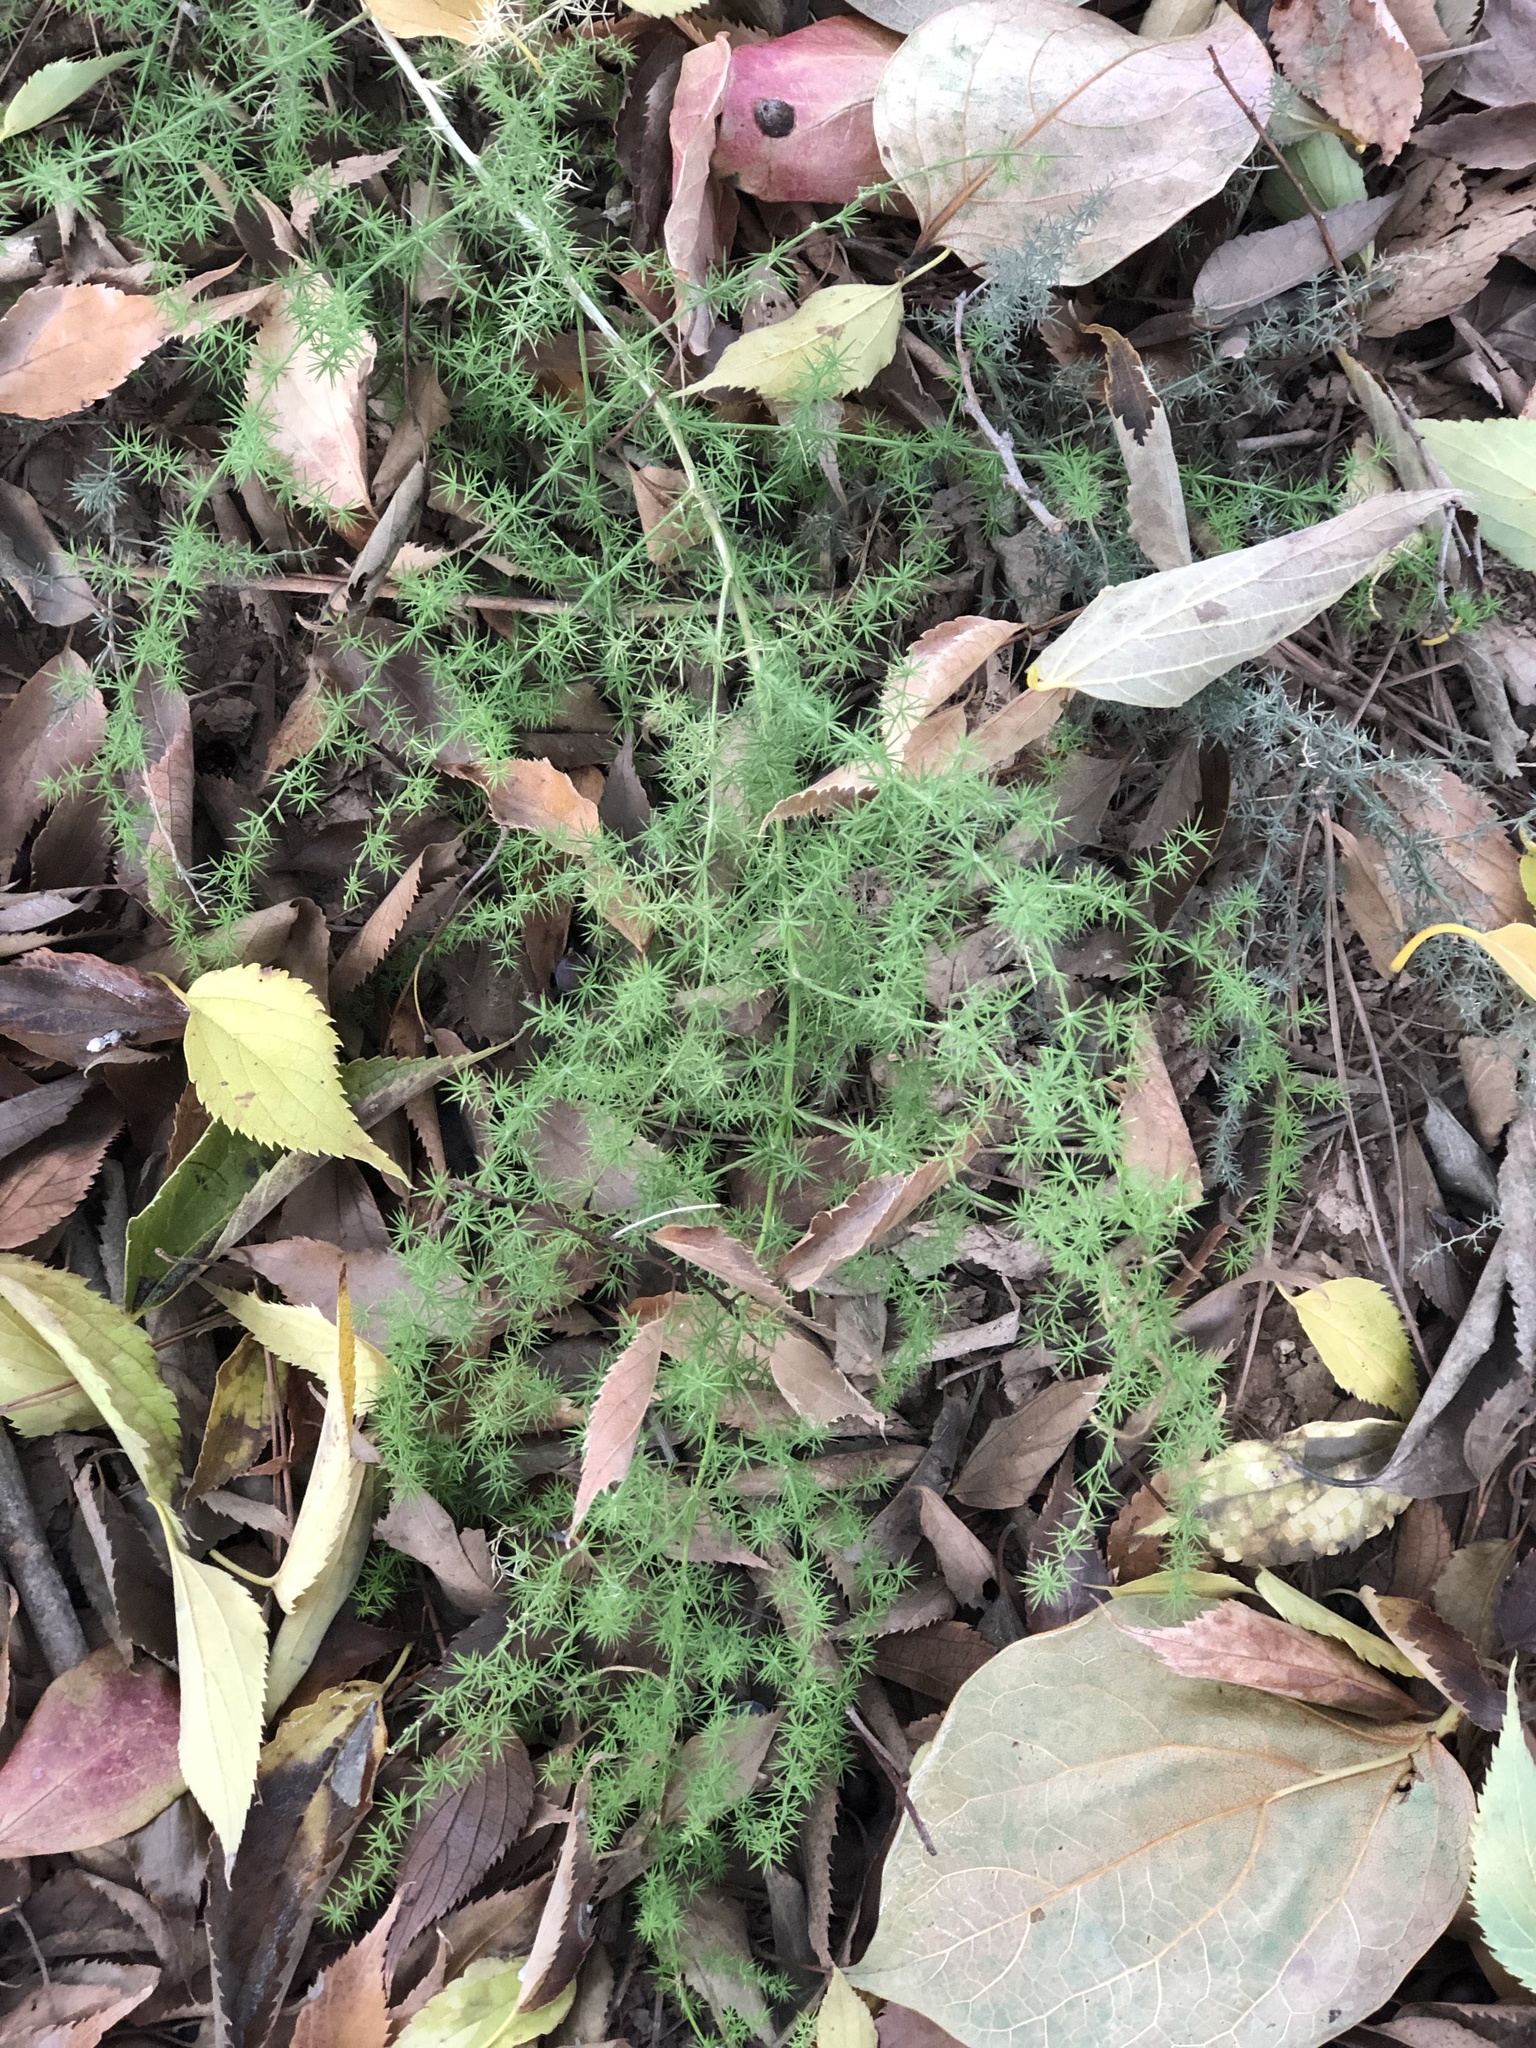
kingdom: Plantae
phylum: Tracheophyta
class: Liliopsida
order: Asparagales
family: Asparagaceae
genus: Asparagus
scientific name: Asparagus acutifolius
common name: Wild asparagus
